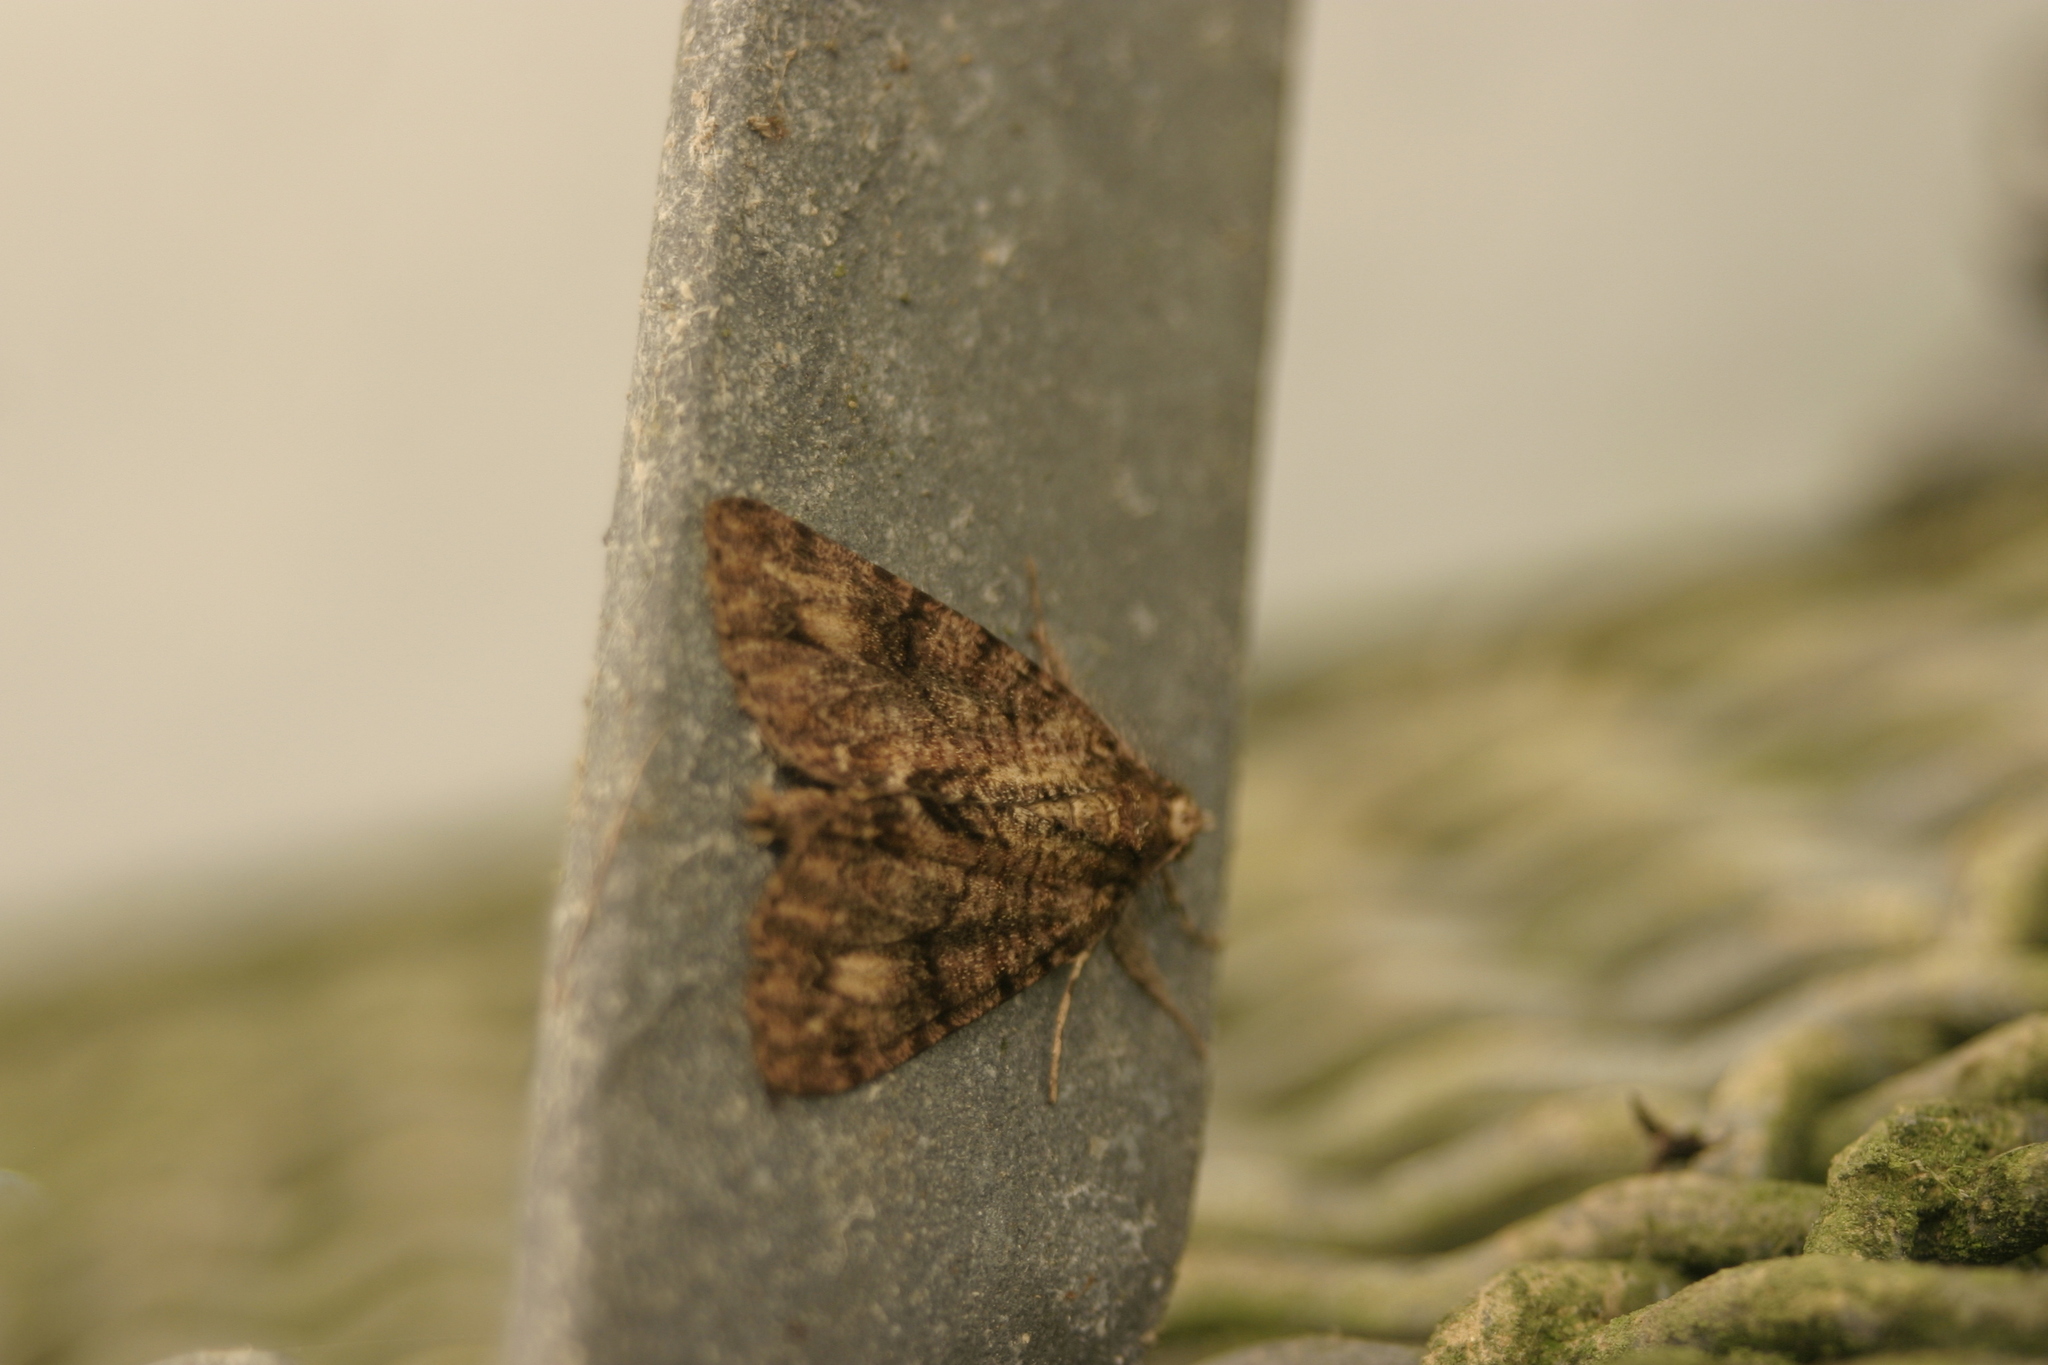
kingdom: Animalia
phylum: Arthropoda
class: Insecta
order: Lepidoptera
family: Geometridae
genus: Pseudocoremia
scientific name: Pseudocoremia suavis
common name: Common forest looper
